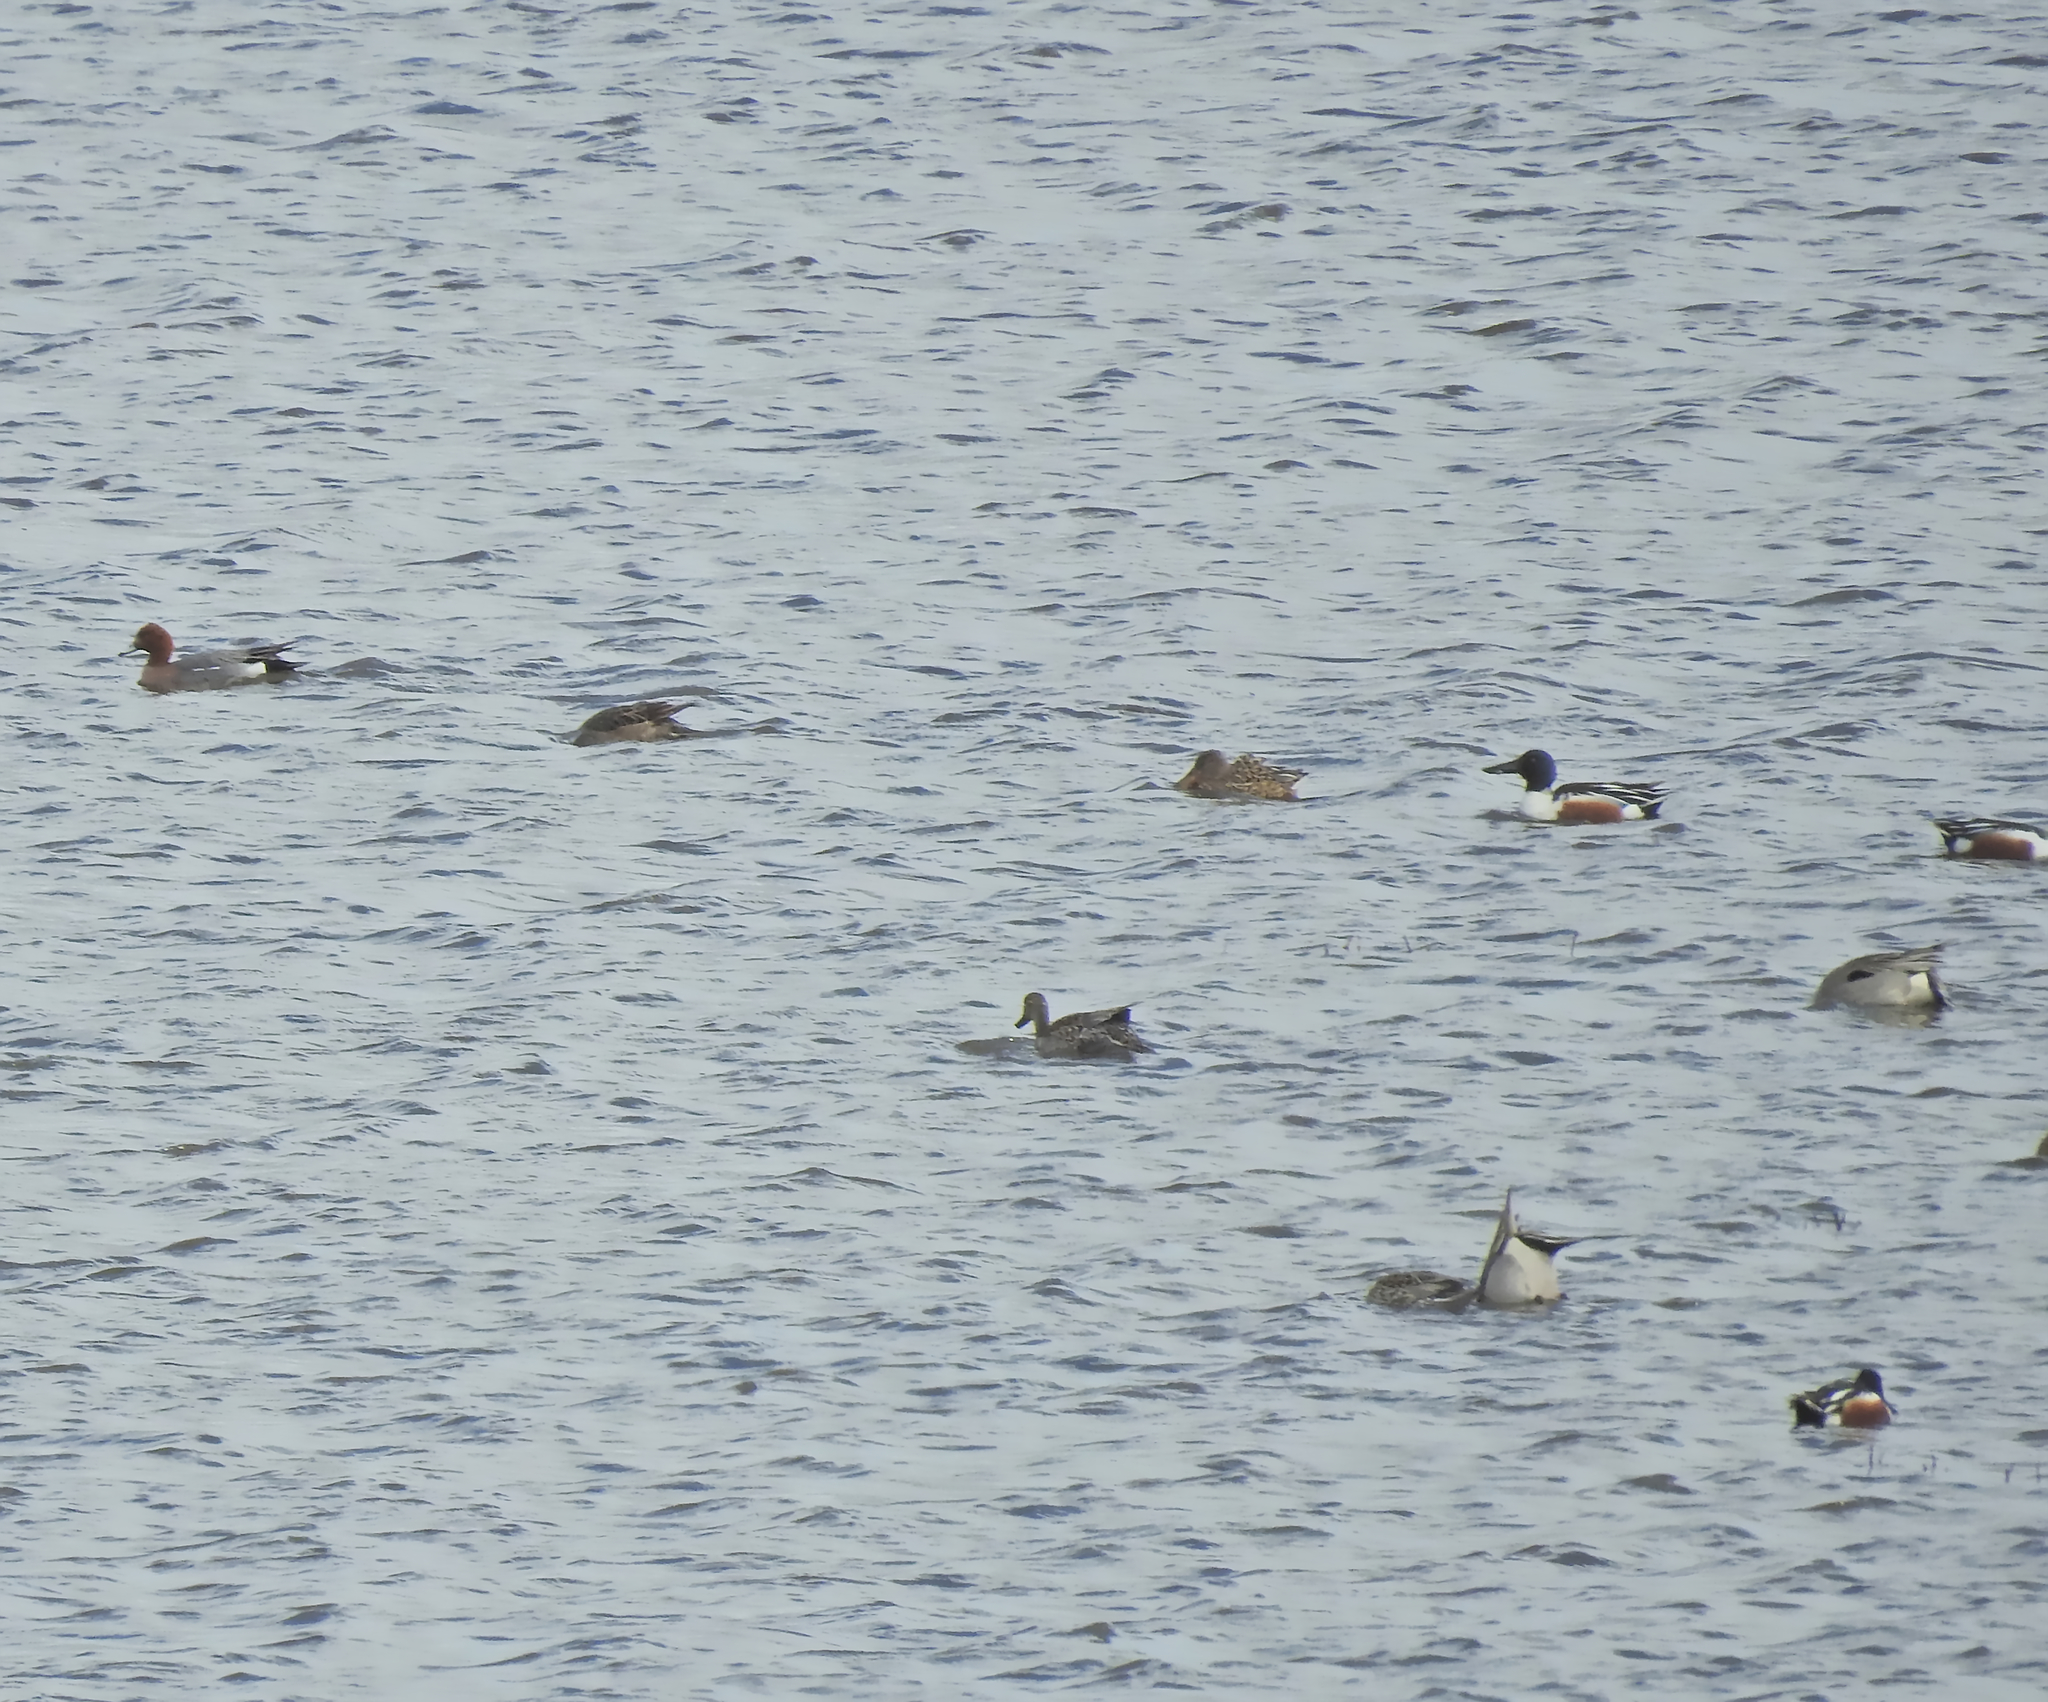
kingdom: Animalia
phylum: Chordata
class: Aves
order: Anseriformes
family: Anatidae
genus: Spatula
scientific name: Spatula clypeata
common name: Northern shoveler
